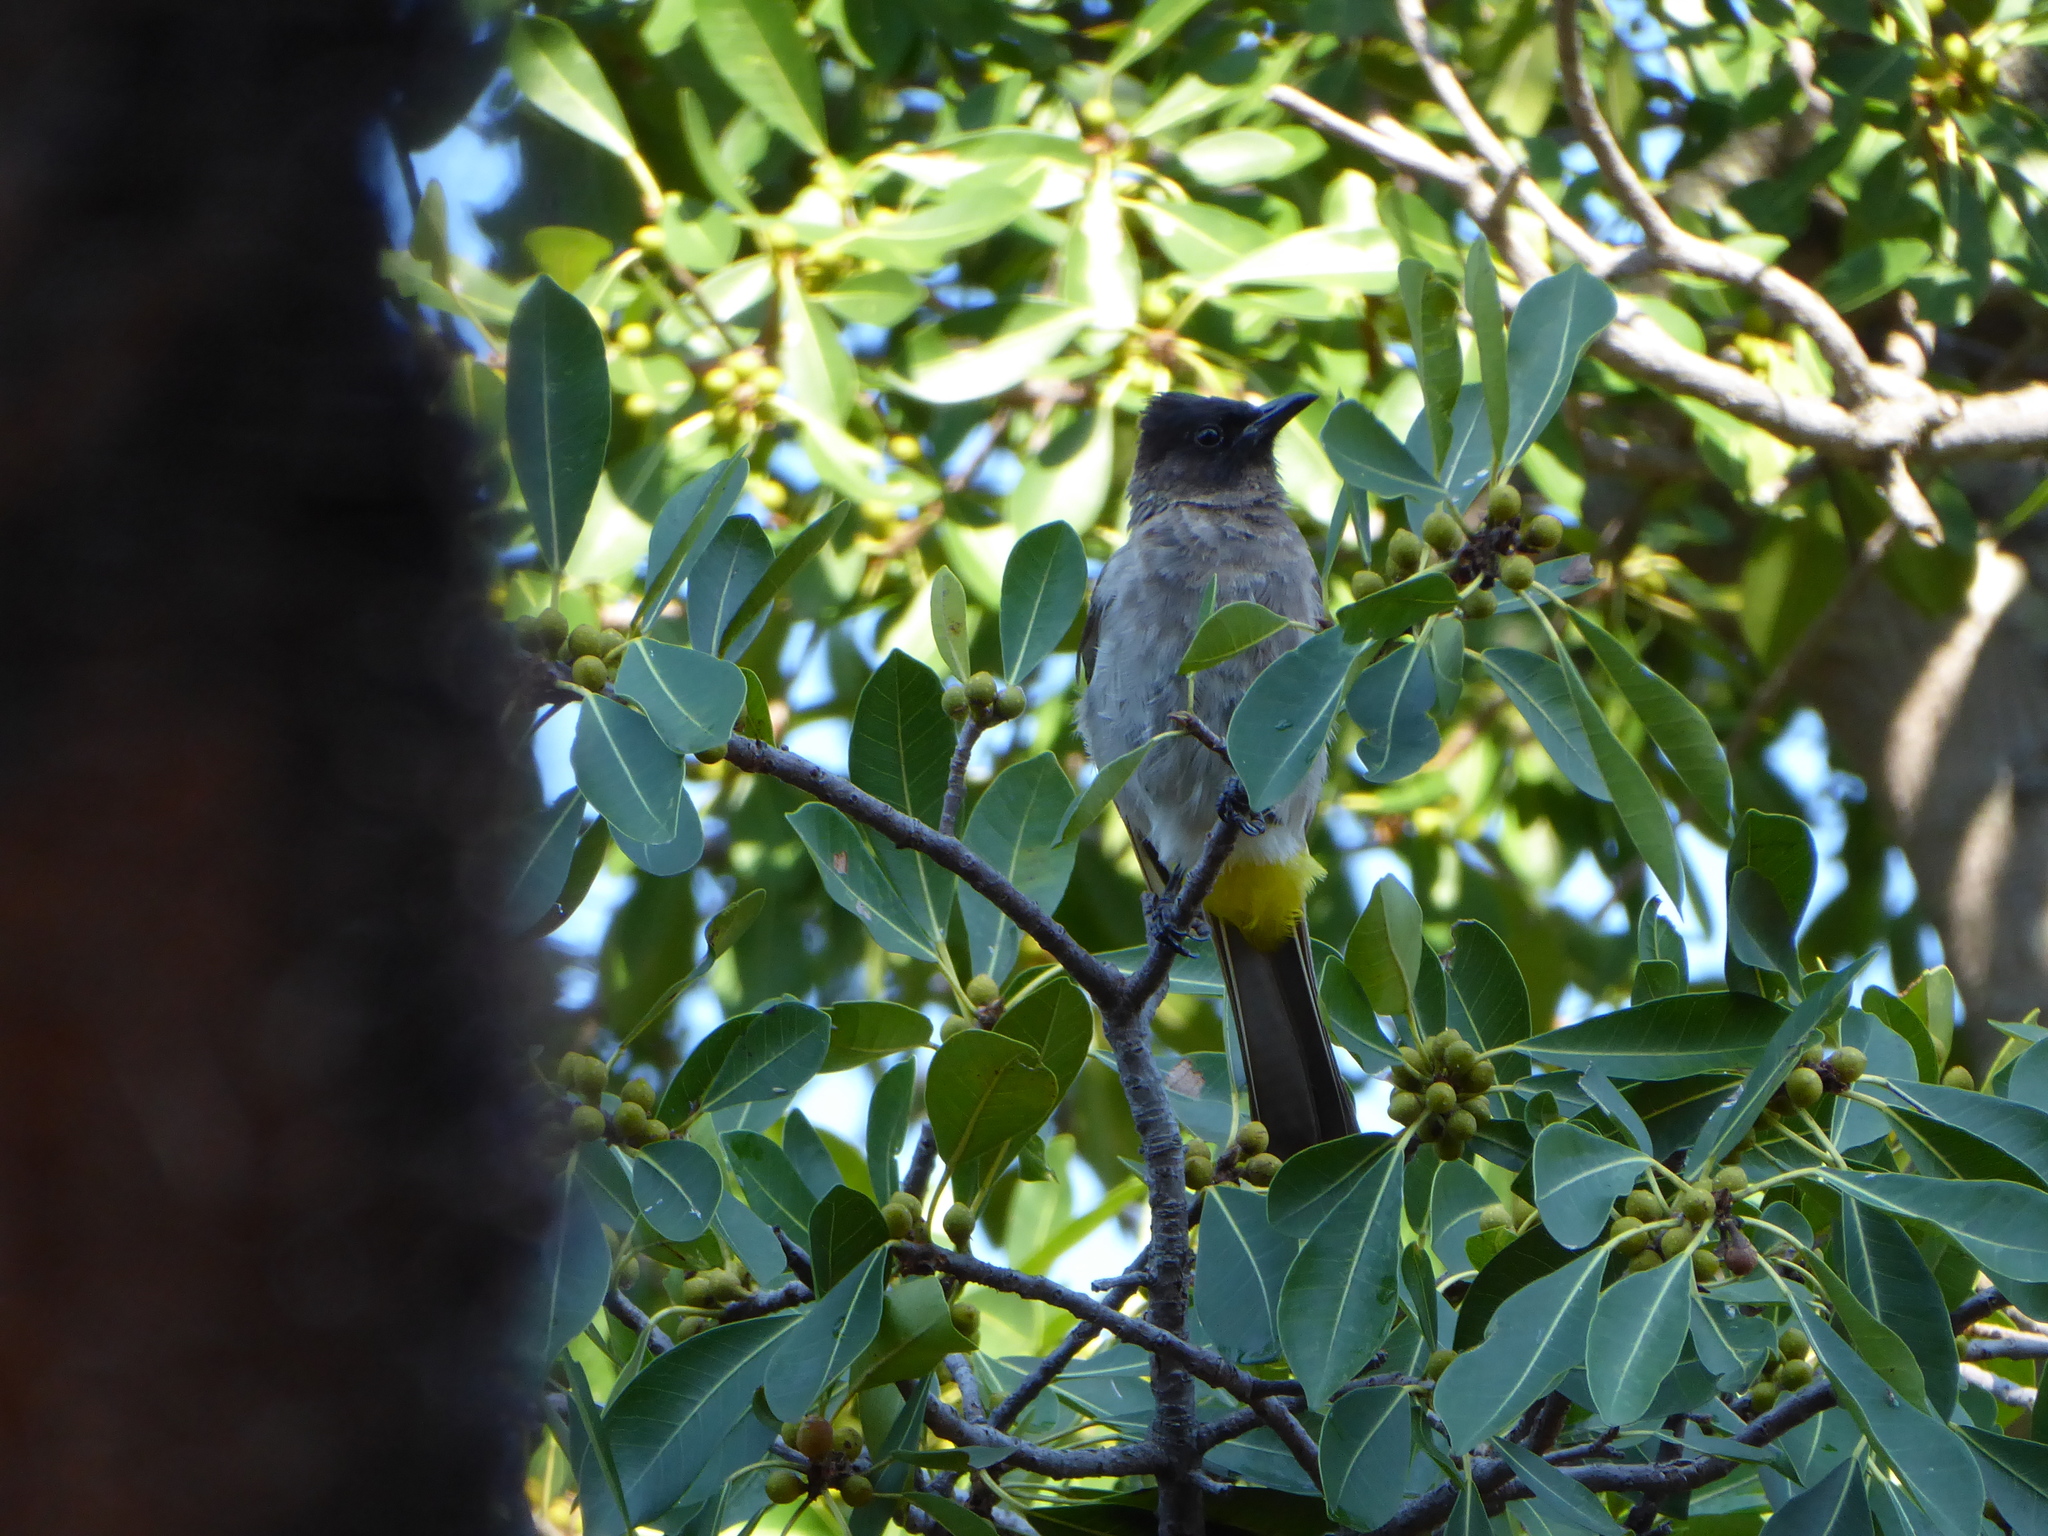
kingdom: Animalia
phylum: Chordata
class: Aves
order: Passeriformes
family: Pycnonotidae
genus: Pycnonotus
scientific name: Pycnonotus barbatus
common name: Common bulbul
